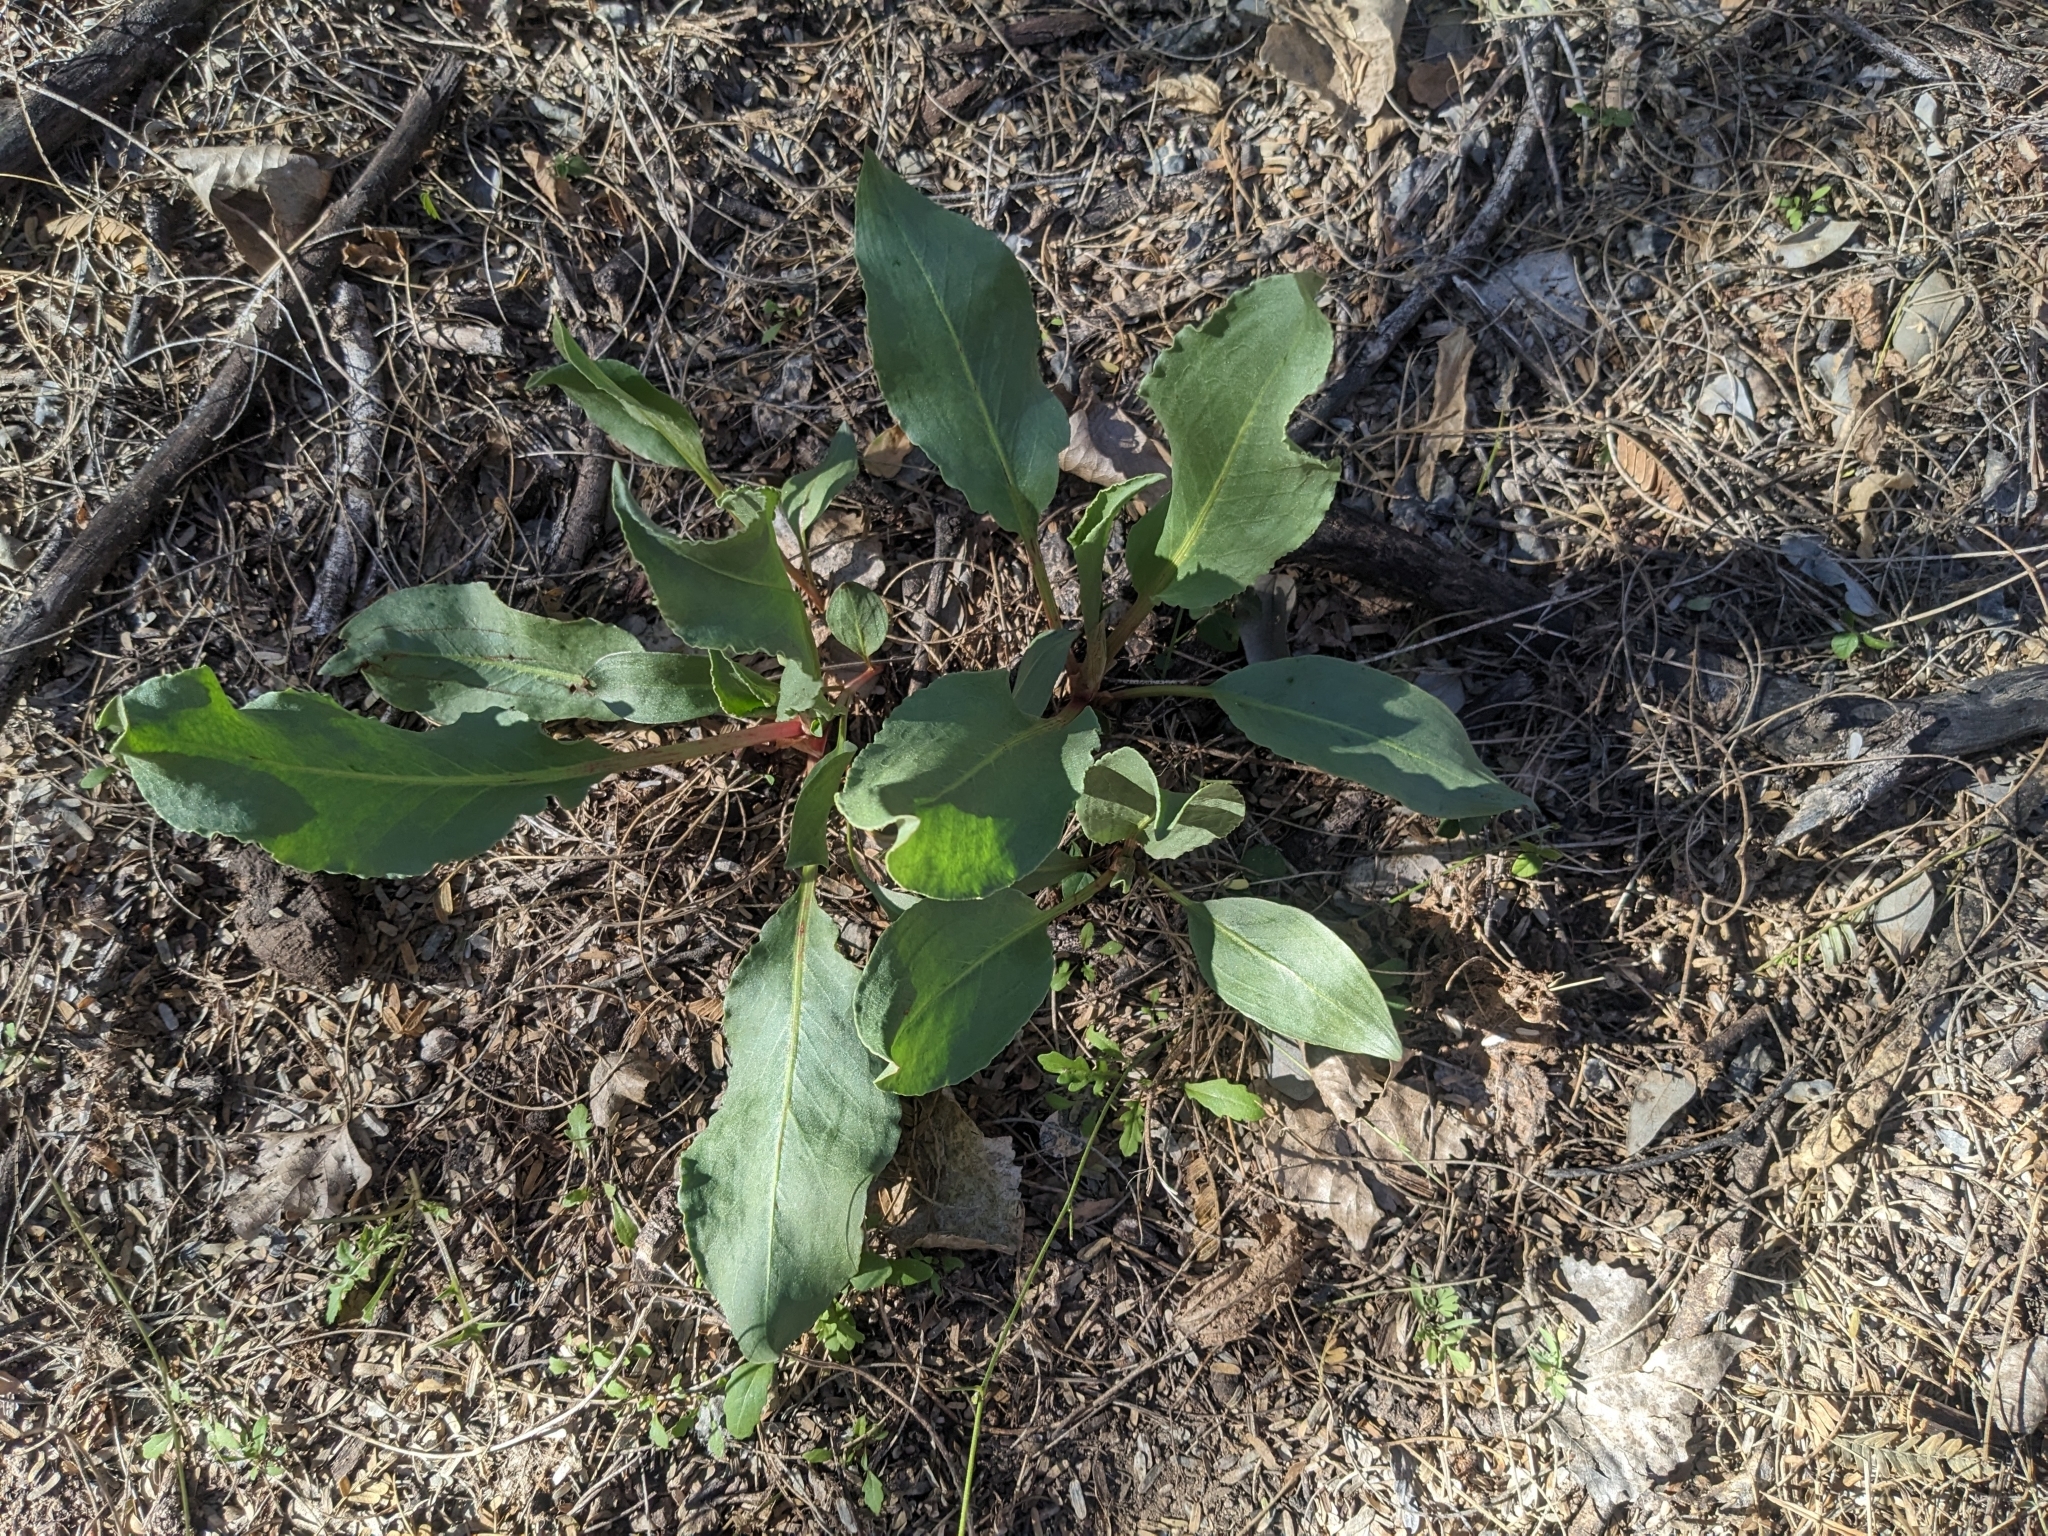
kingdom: Plantae
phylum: Tracheophyta
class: Magnoliopsida
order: Caryophyllales
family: Polygonaceae
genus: Rumex
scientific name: Rumex hymenosepalus
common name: Ganagra
